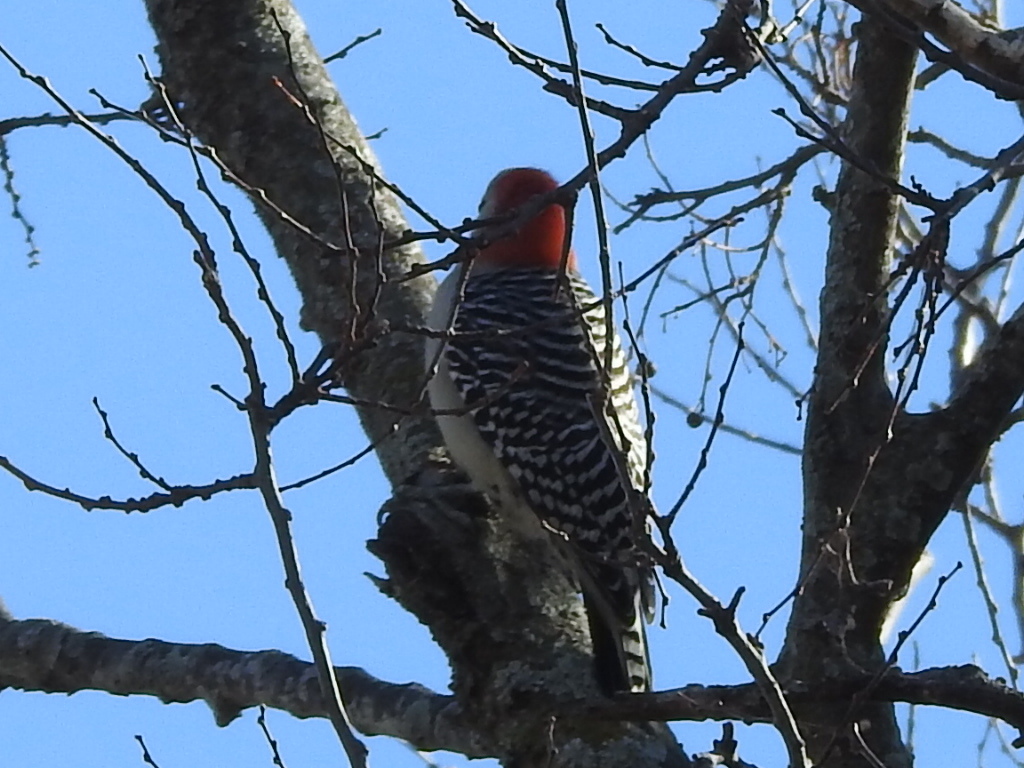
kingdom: Animalia
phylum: Chordata
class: Aves
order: Piciformes
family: Picidae
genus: Melanerpes
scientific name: Melanerpes carolinus
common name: Red-bellied woodpecker
